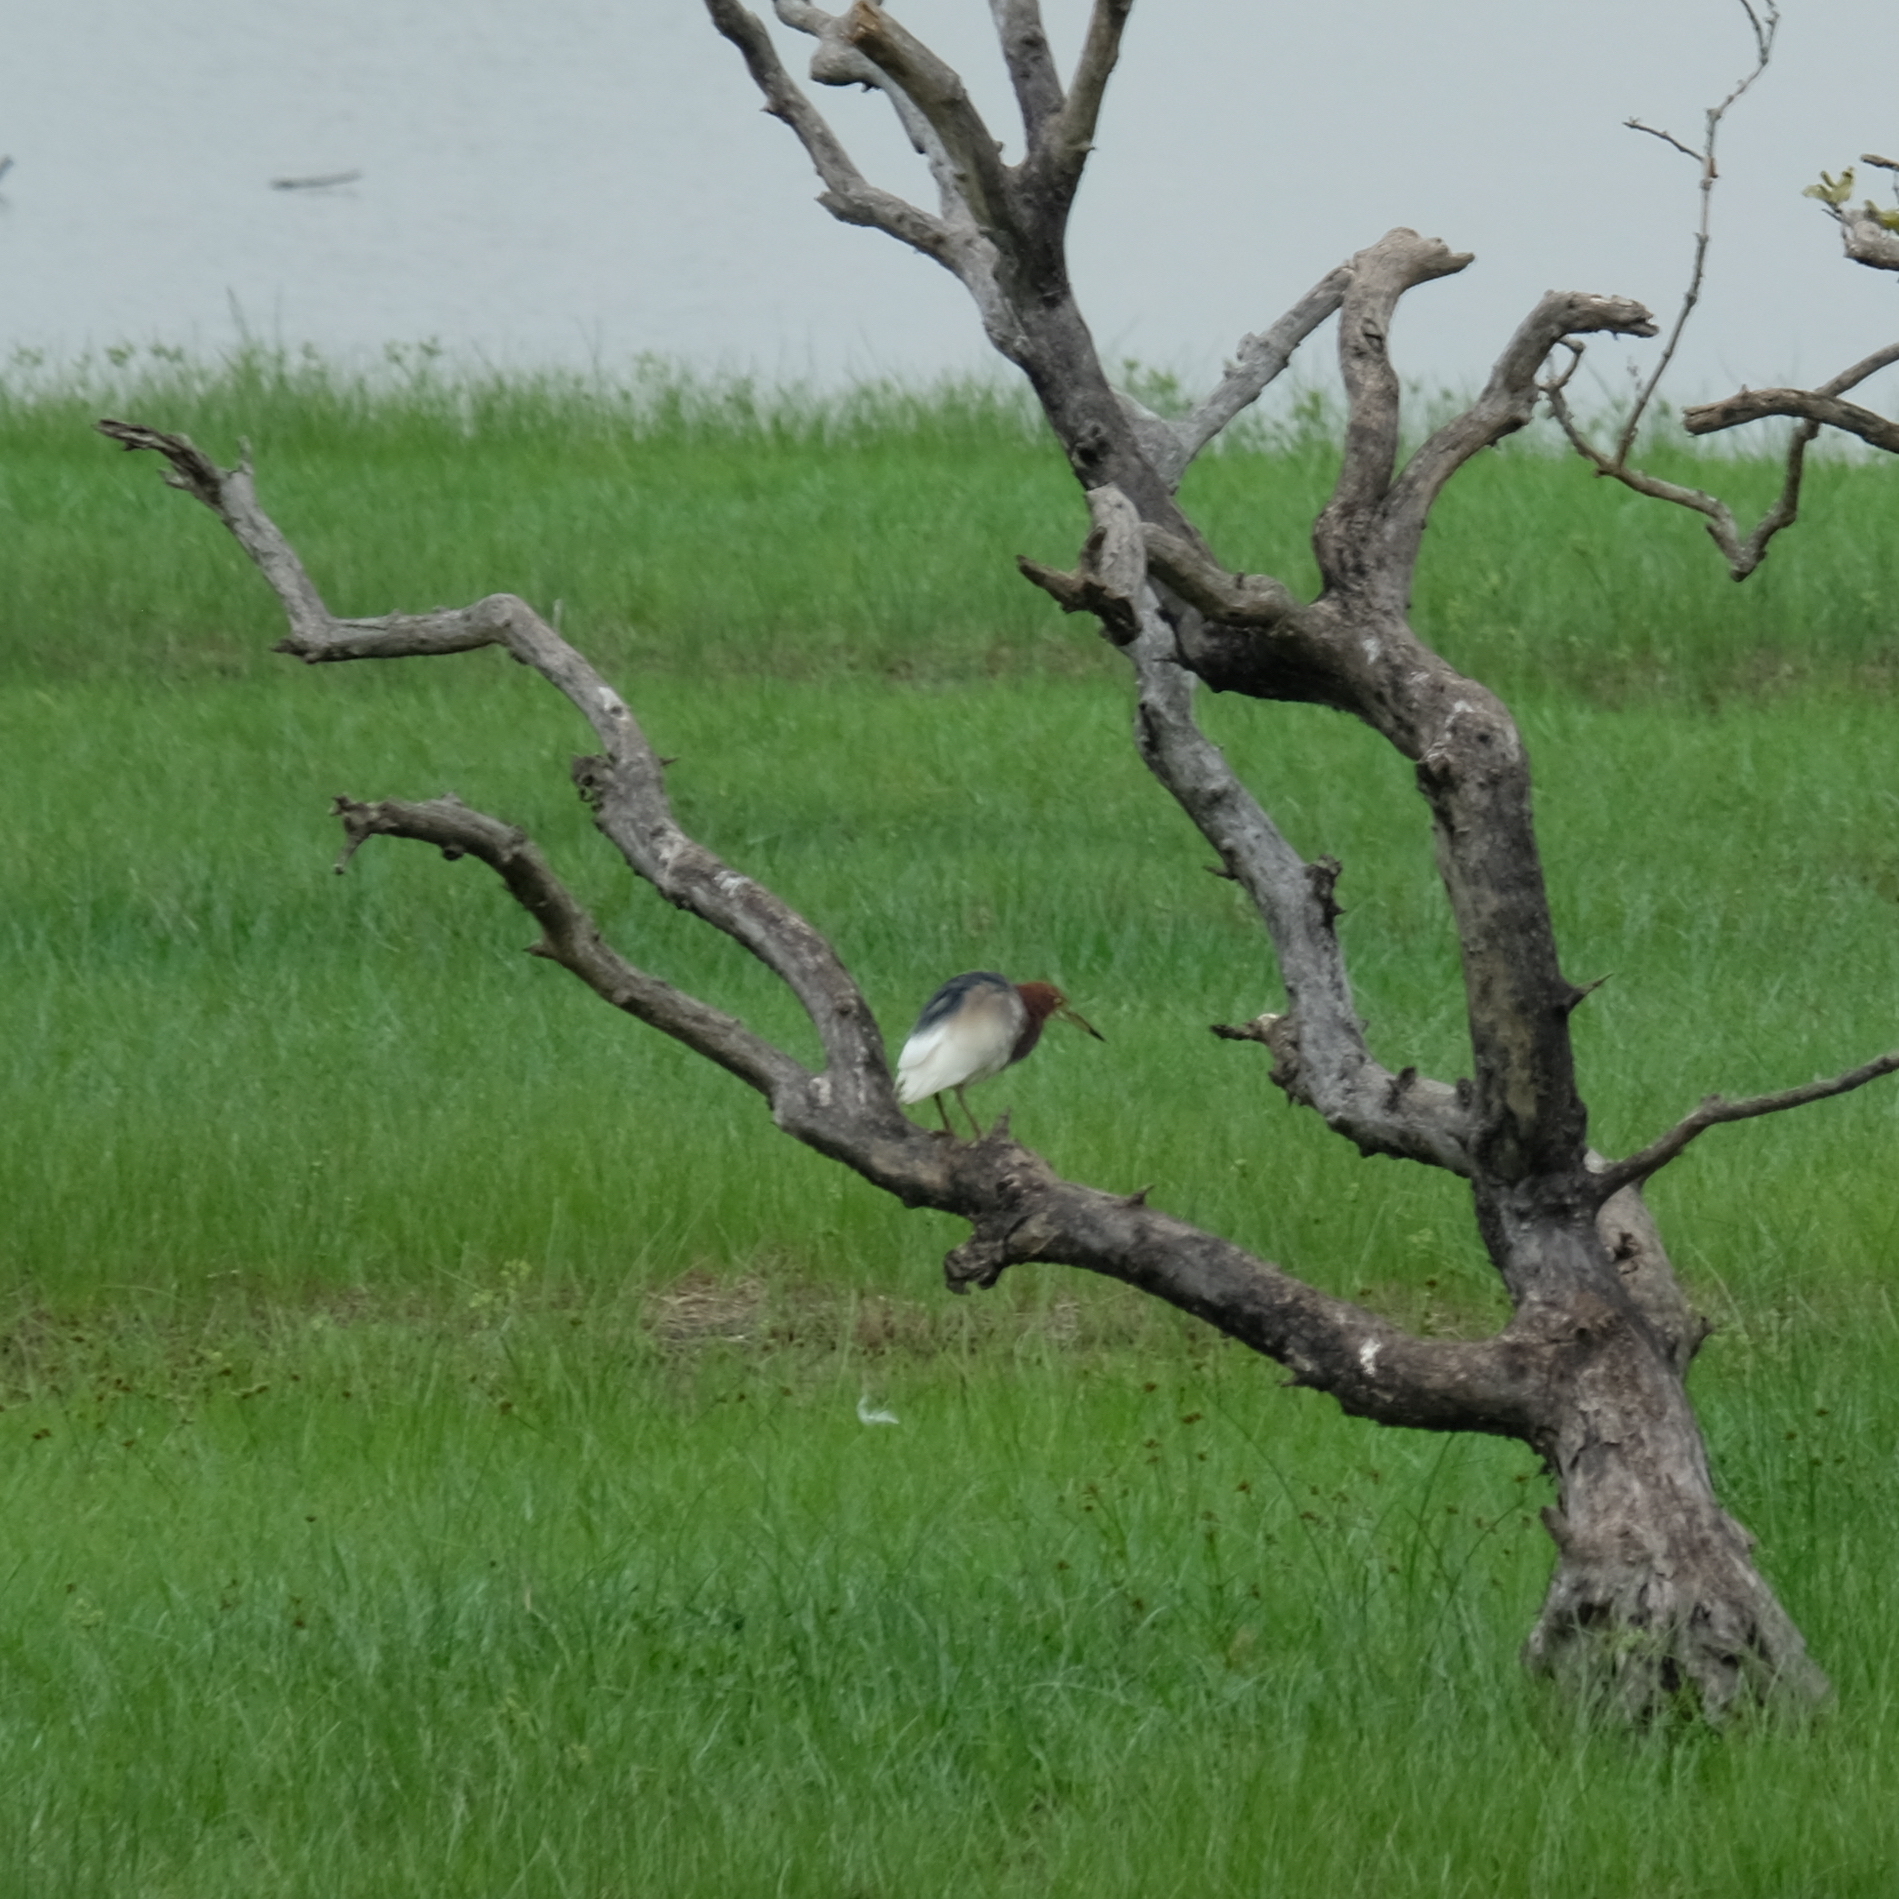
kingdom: Animalia
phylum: Chordata
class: Aves
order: Pelecaniformes
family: Ardeidae
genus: Ardeola
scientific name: Ardeola bacchus
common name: Chinese pond heron
